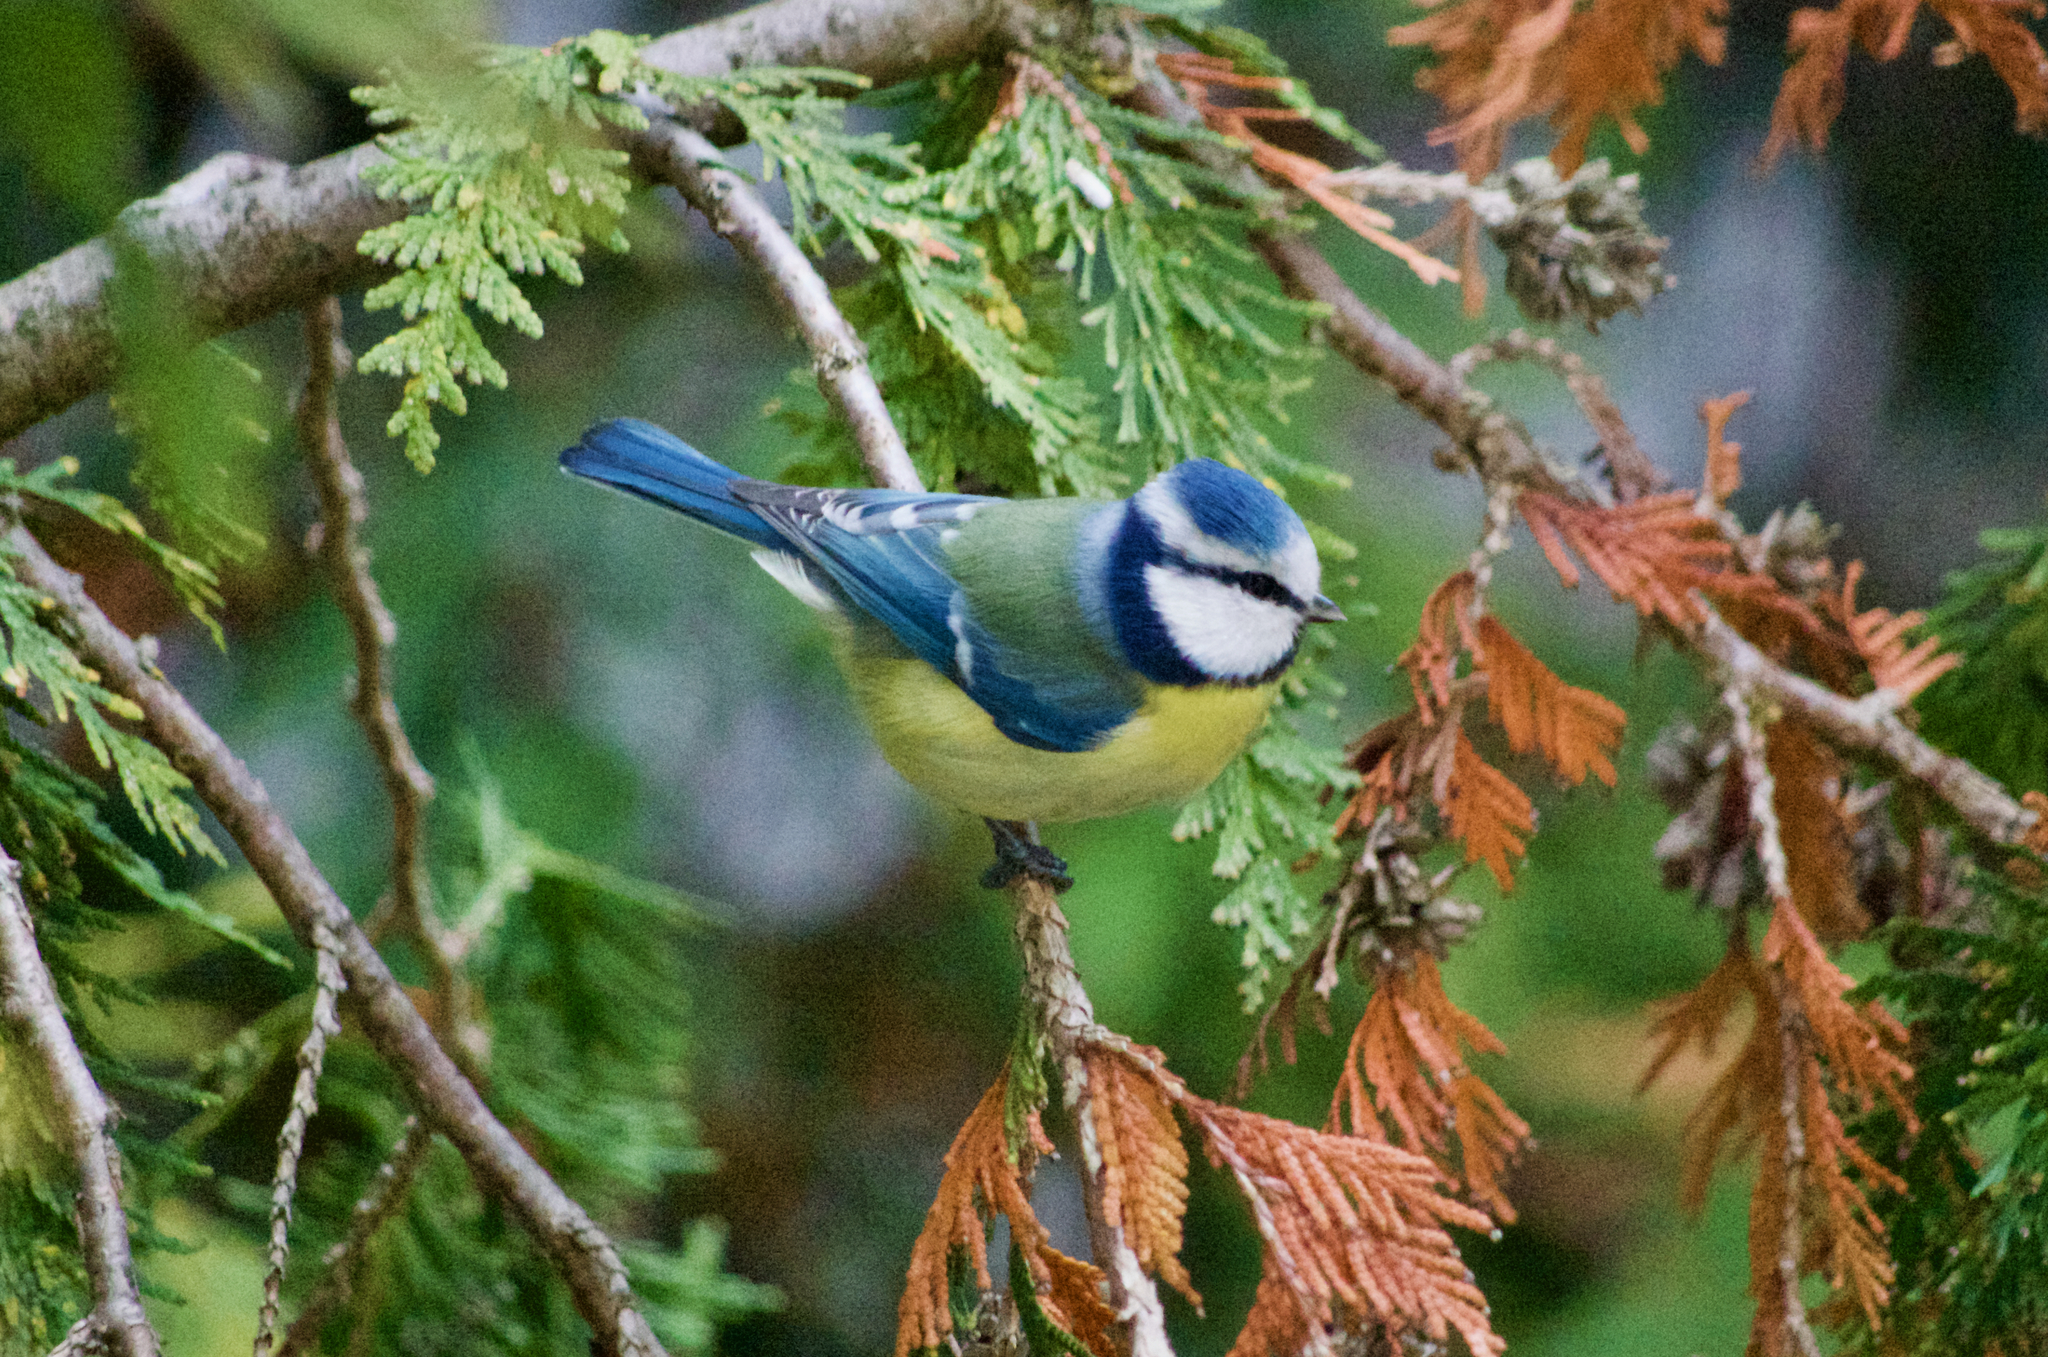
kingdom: Animalia
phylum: Chordata
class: Aves
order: Passeriformes
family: Paridae
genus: Cyanistes
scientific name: Cyanistes caeruleus
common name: Eurasian blue tit
